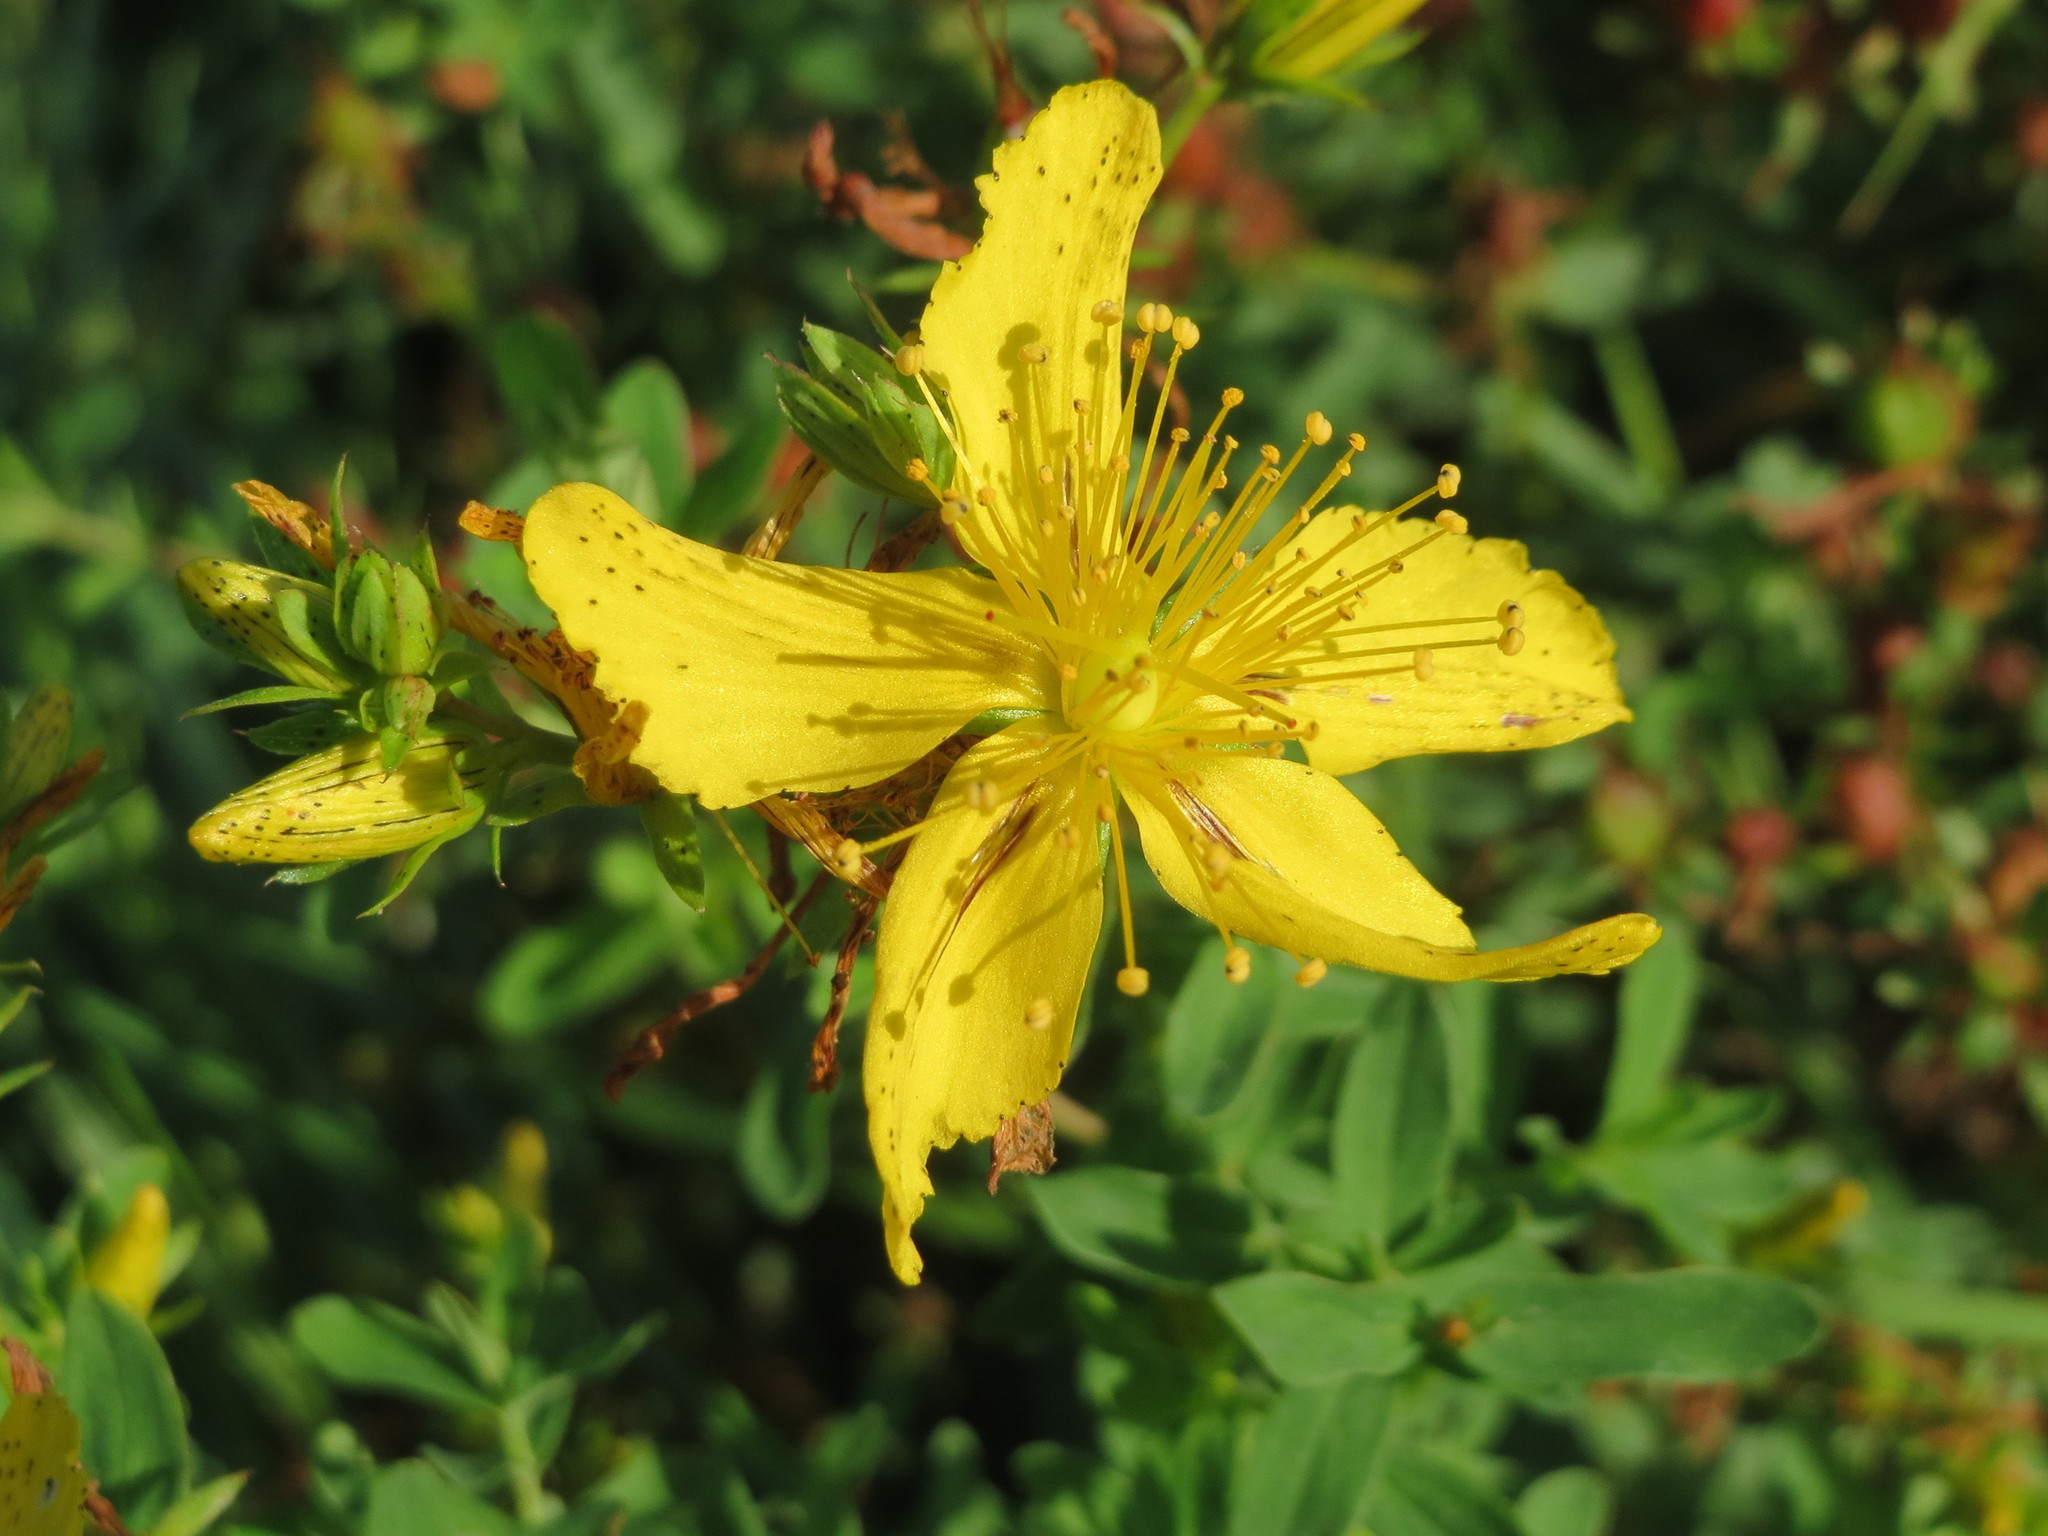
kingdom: Plantae
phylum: Tracheophyta
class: Magnoliopsida
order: Malpighiales
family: Hypericaceae
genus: Hypericum
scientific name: Hypericum perforatum
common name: Common st. johnswort
